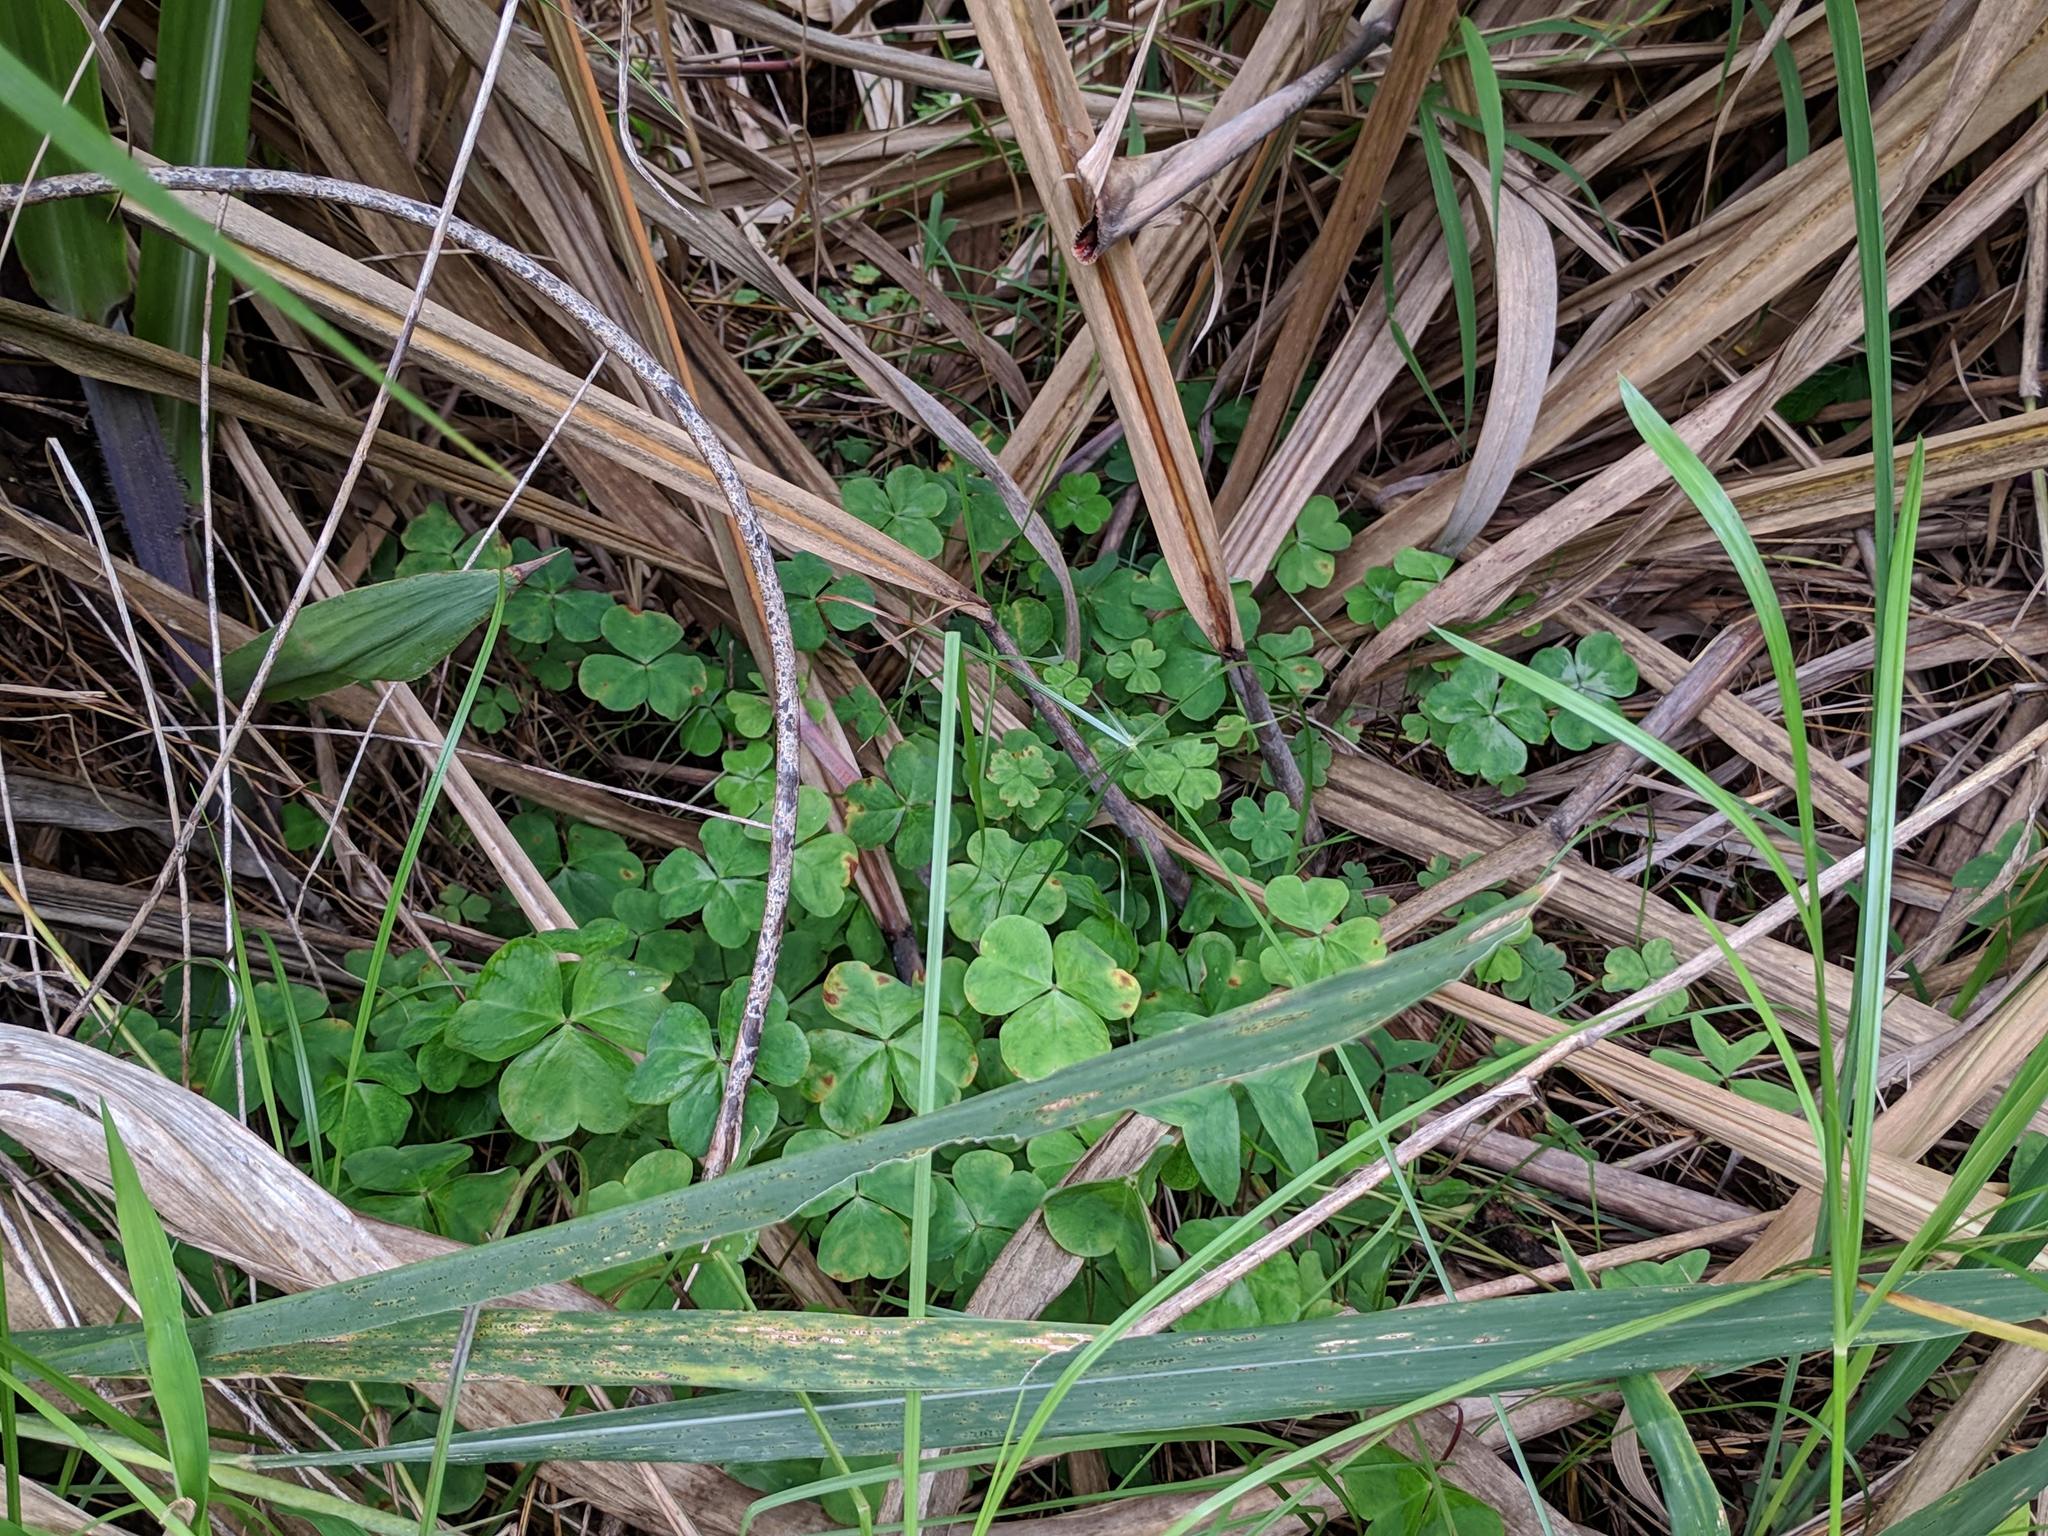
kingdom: Plantae
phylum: Tracheophyta
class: Magnoliopsida
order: Oxalidales
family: Oxalidaceae
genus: Oxalis
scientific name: Oxalis latifolia
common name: Garden pink-sorrel
